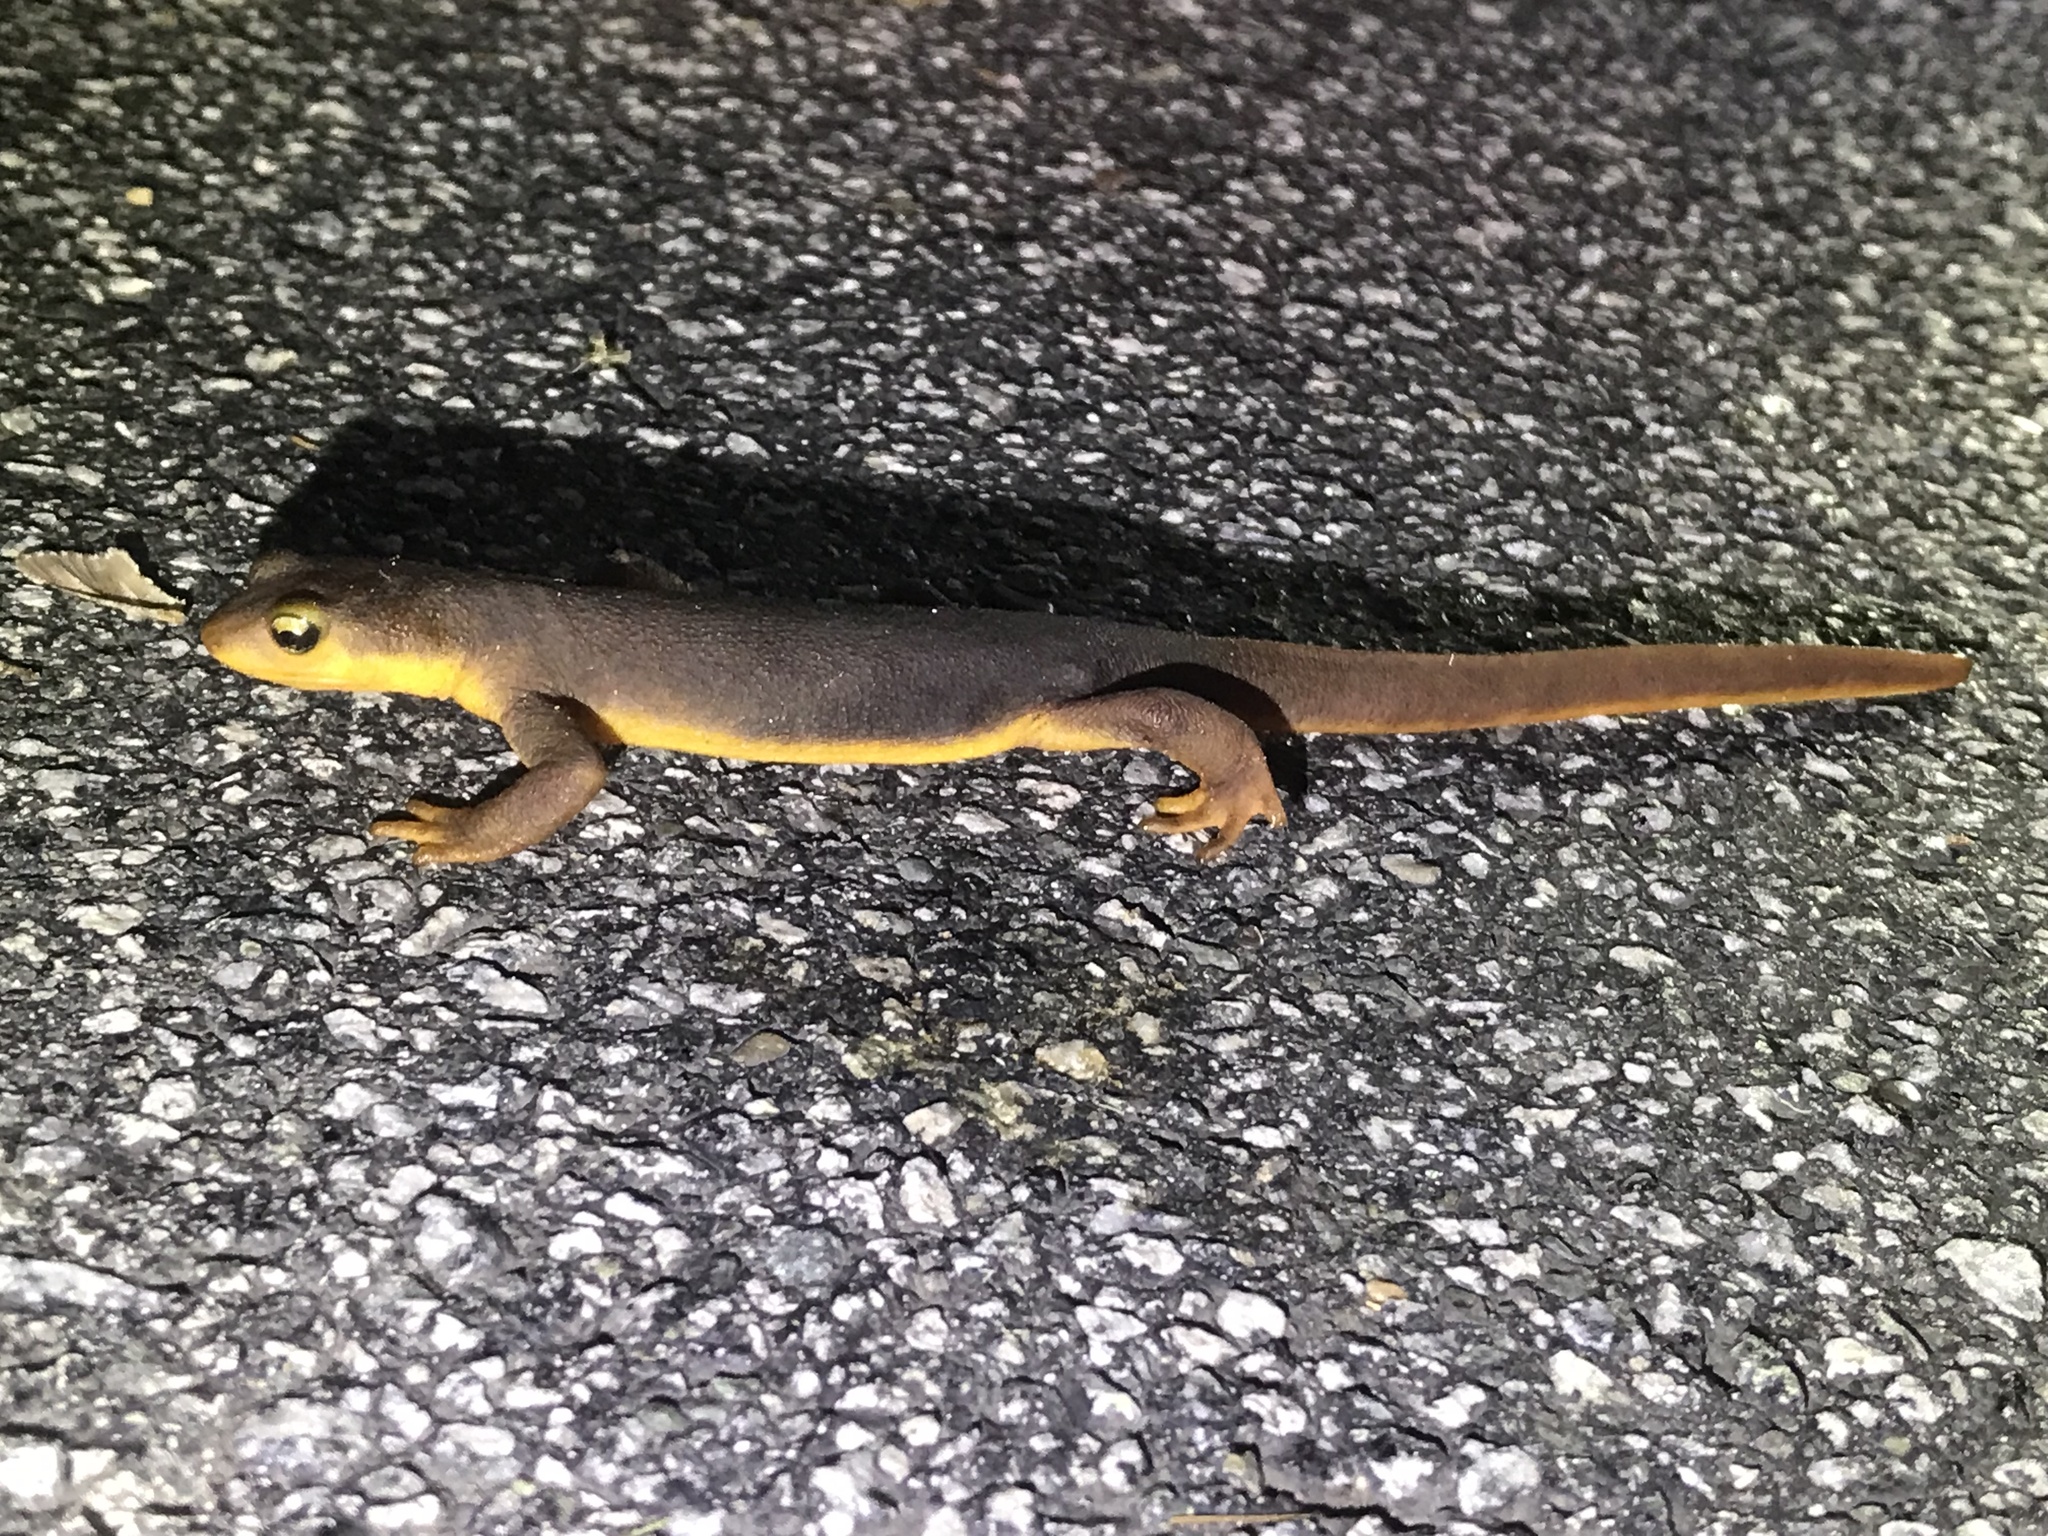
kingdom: Animalia
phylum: Chordata
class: Amphibia
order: Caudata
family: Salamandridae
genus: Taricha
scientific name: Taricha torosa
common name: California newt
